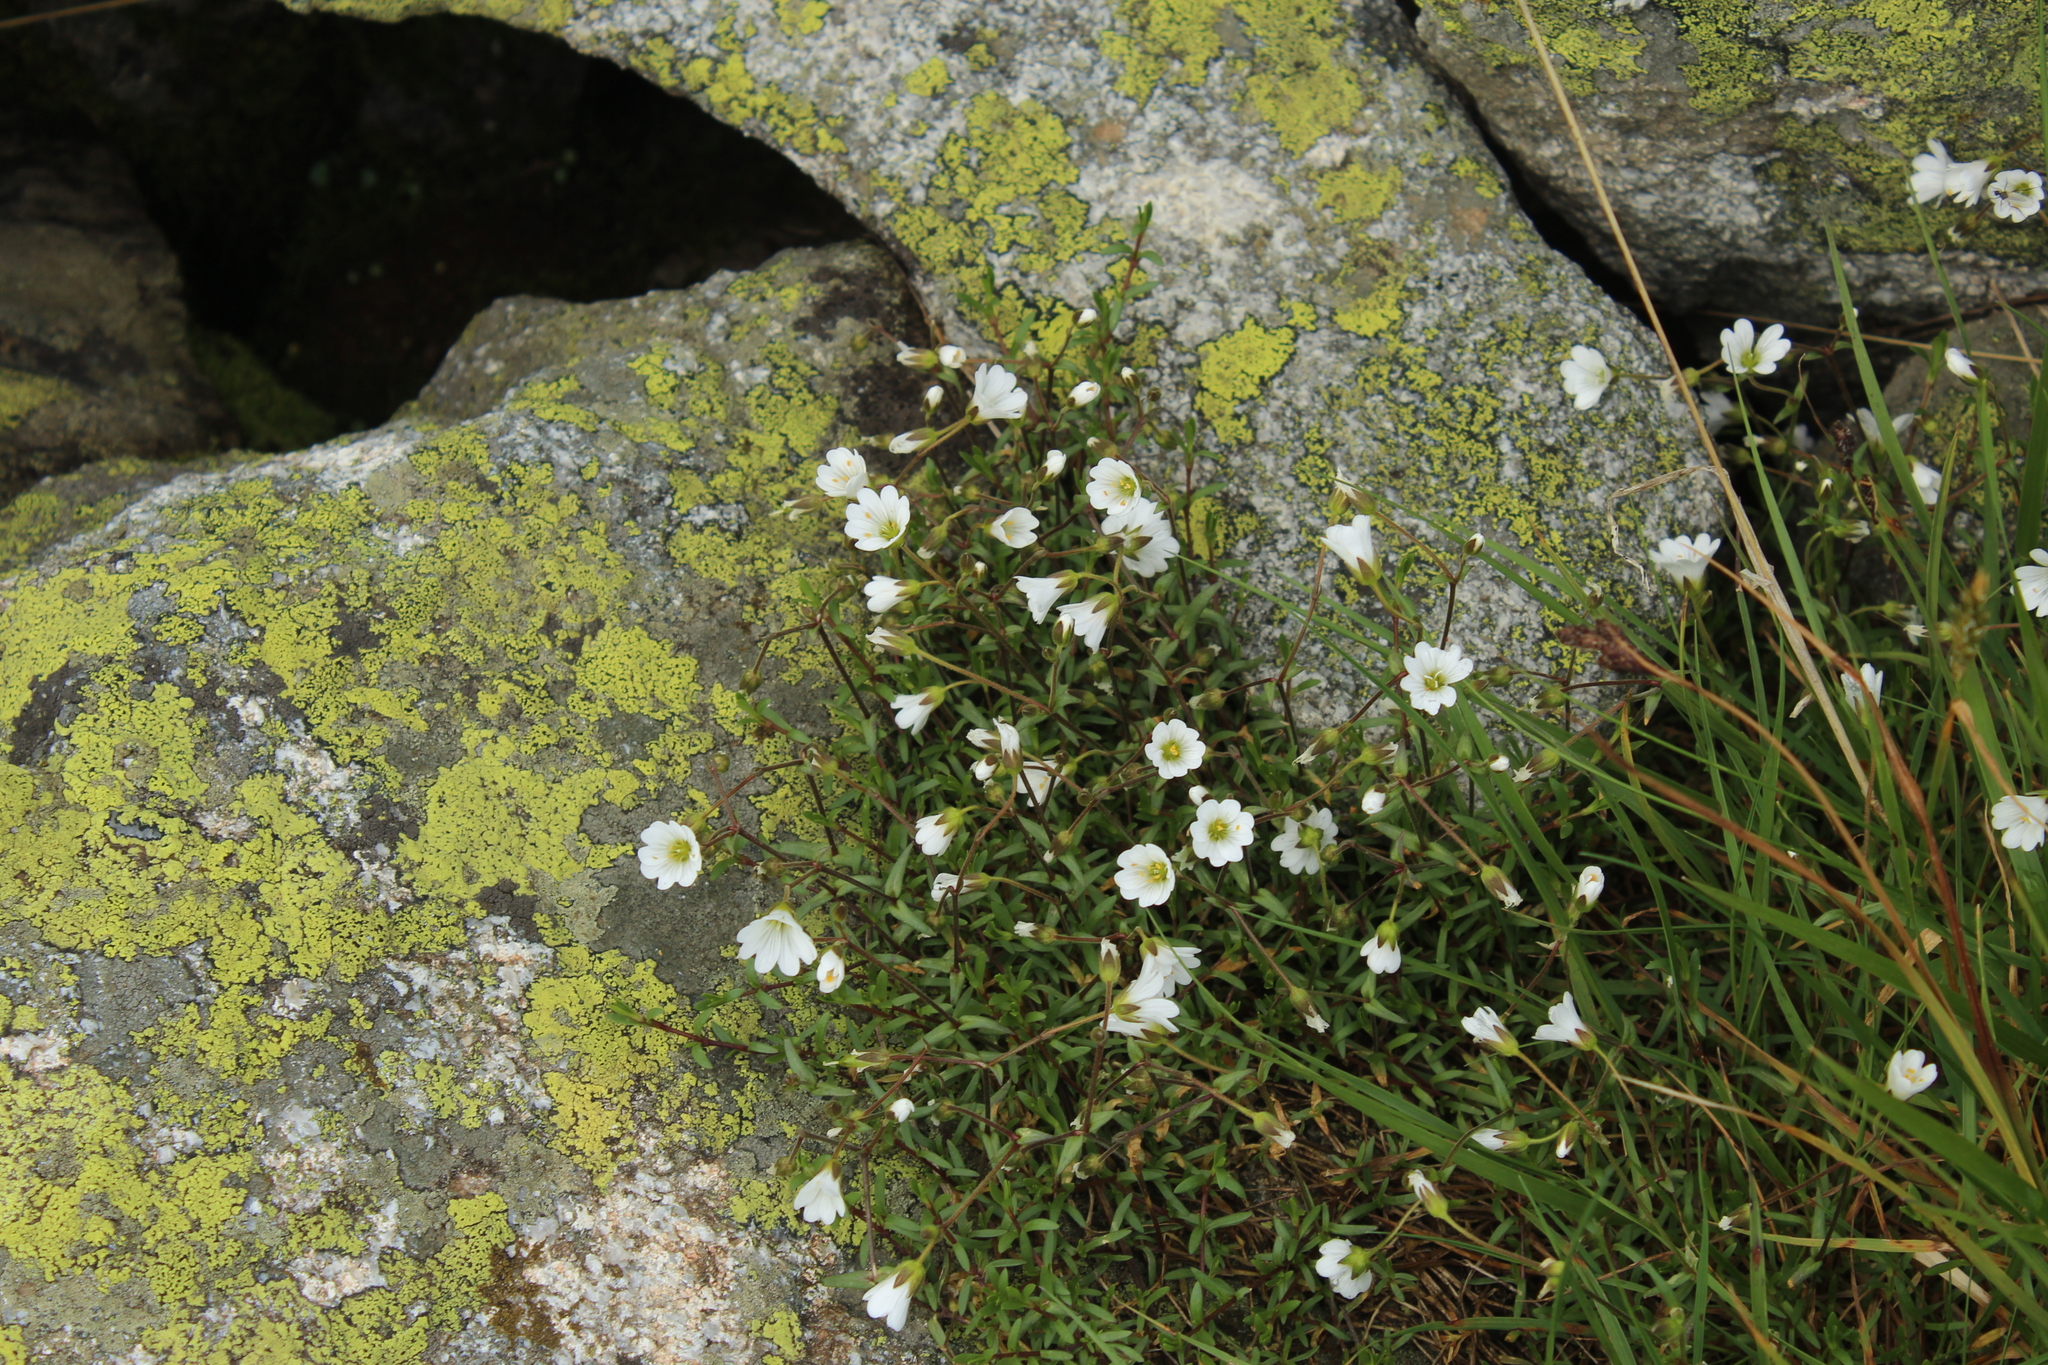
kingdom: Plantae
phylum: Tracheophyta
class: Magnoliopsida
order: Caryophyllales
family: Caryophyllaceae
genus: Dichodon
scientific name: Dichodon cerastoides
